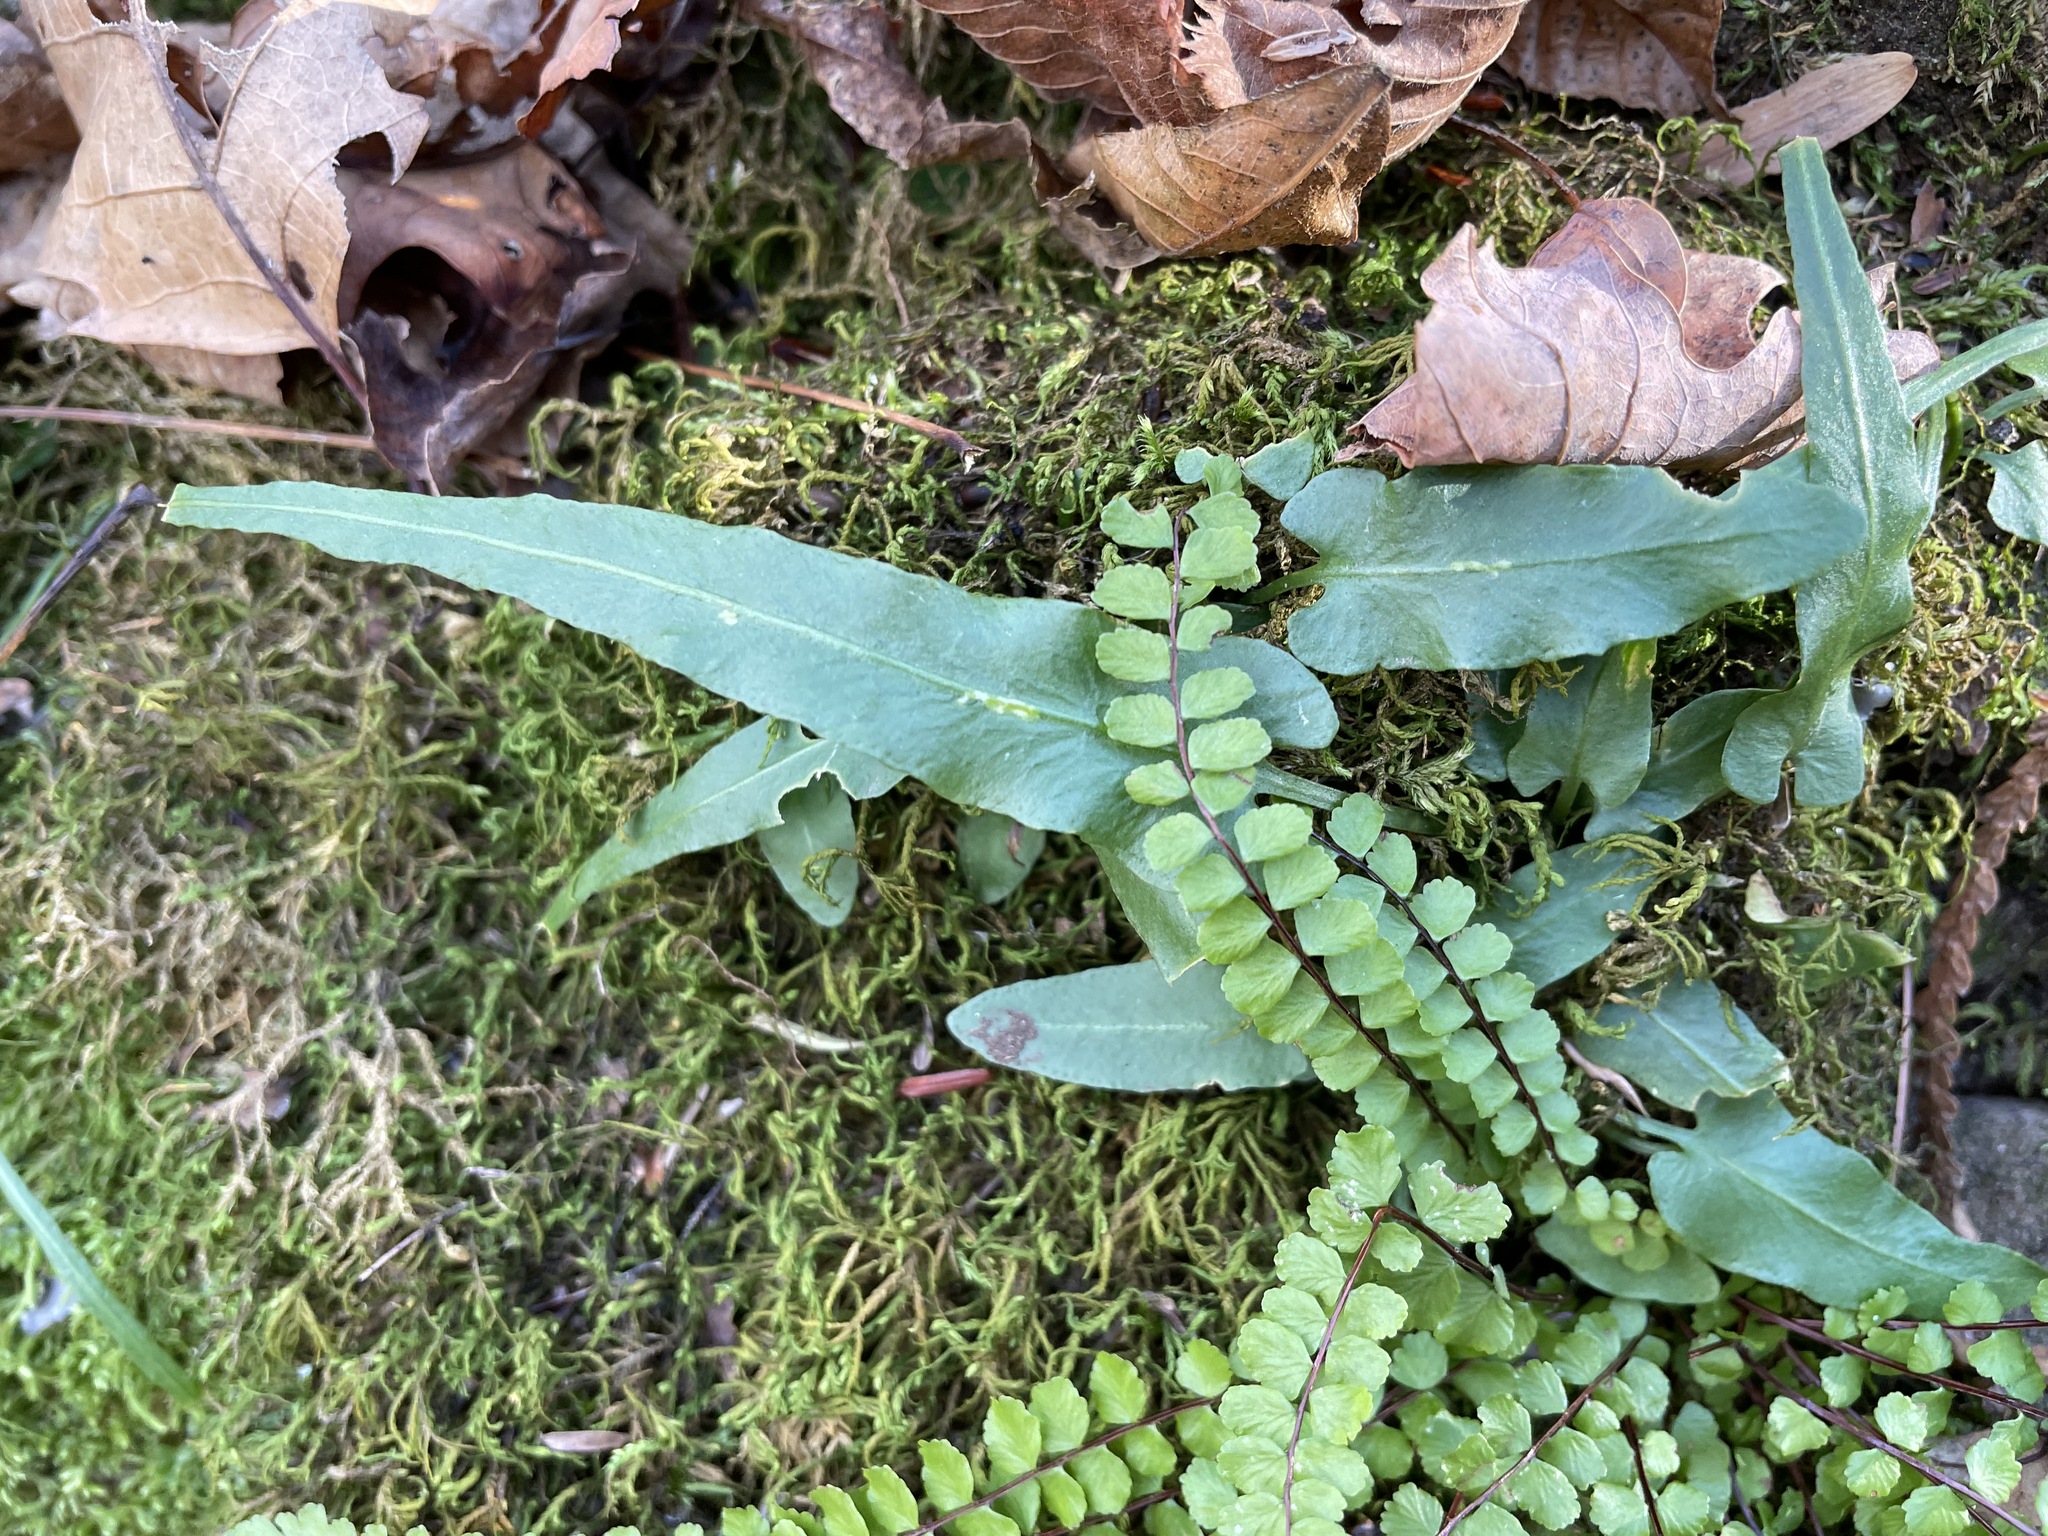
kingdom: Plantae
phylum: Tracheophyta
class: Polypodiopsida
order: Polypodiales
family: Aspleniaceae
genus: Asplenium
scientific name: Asplenium rhizophyllum
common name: Walking fern
